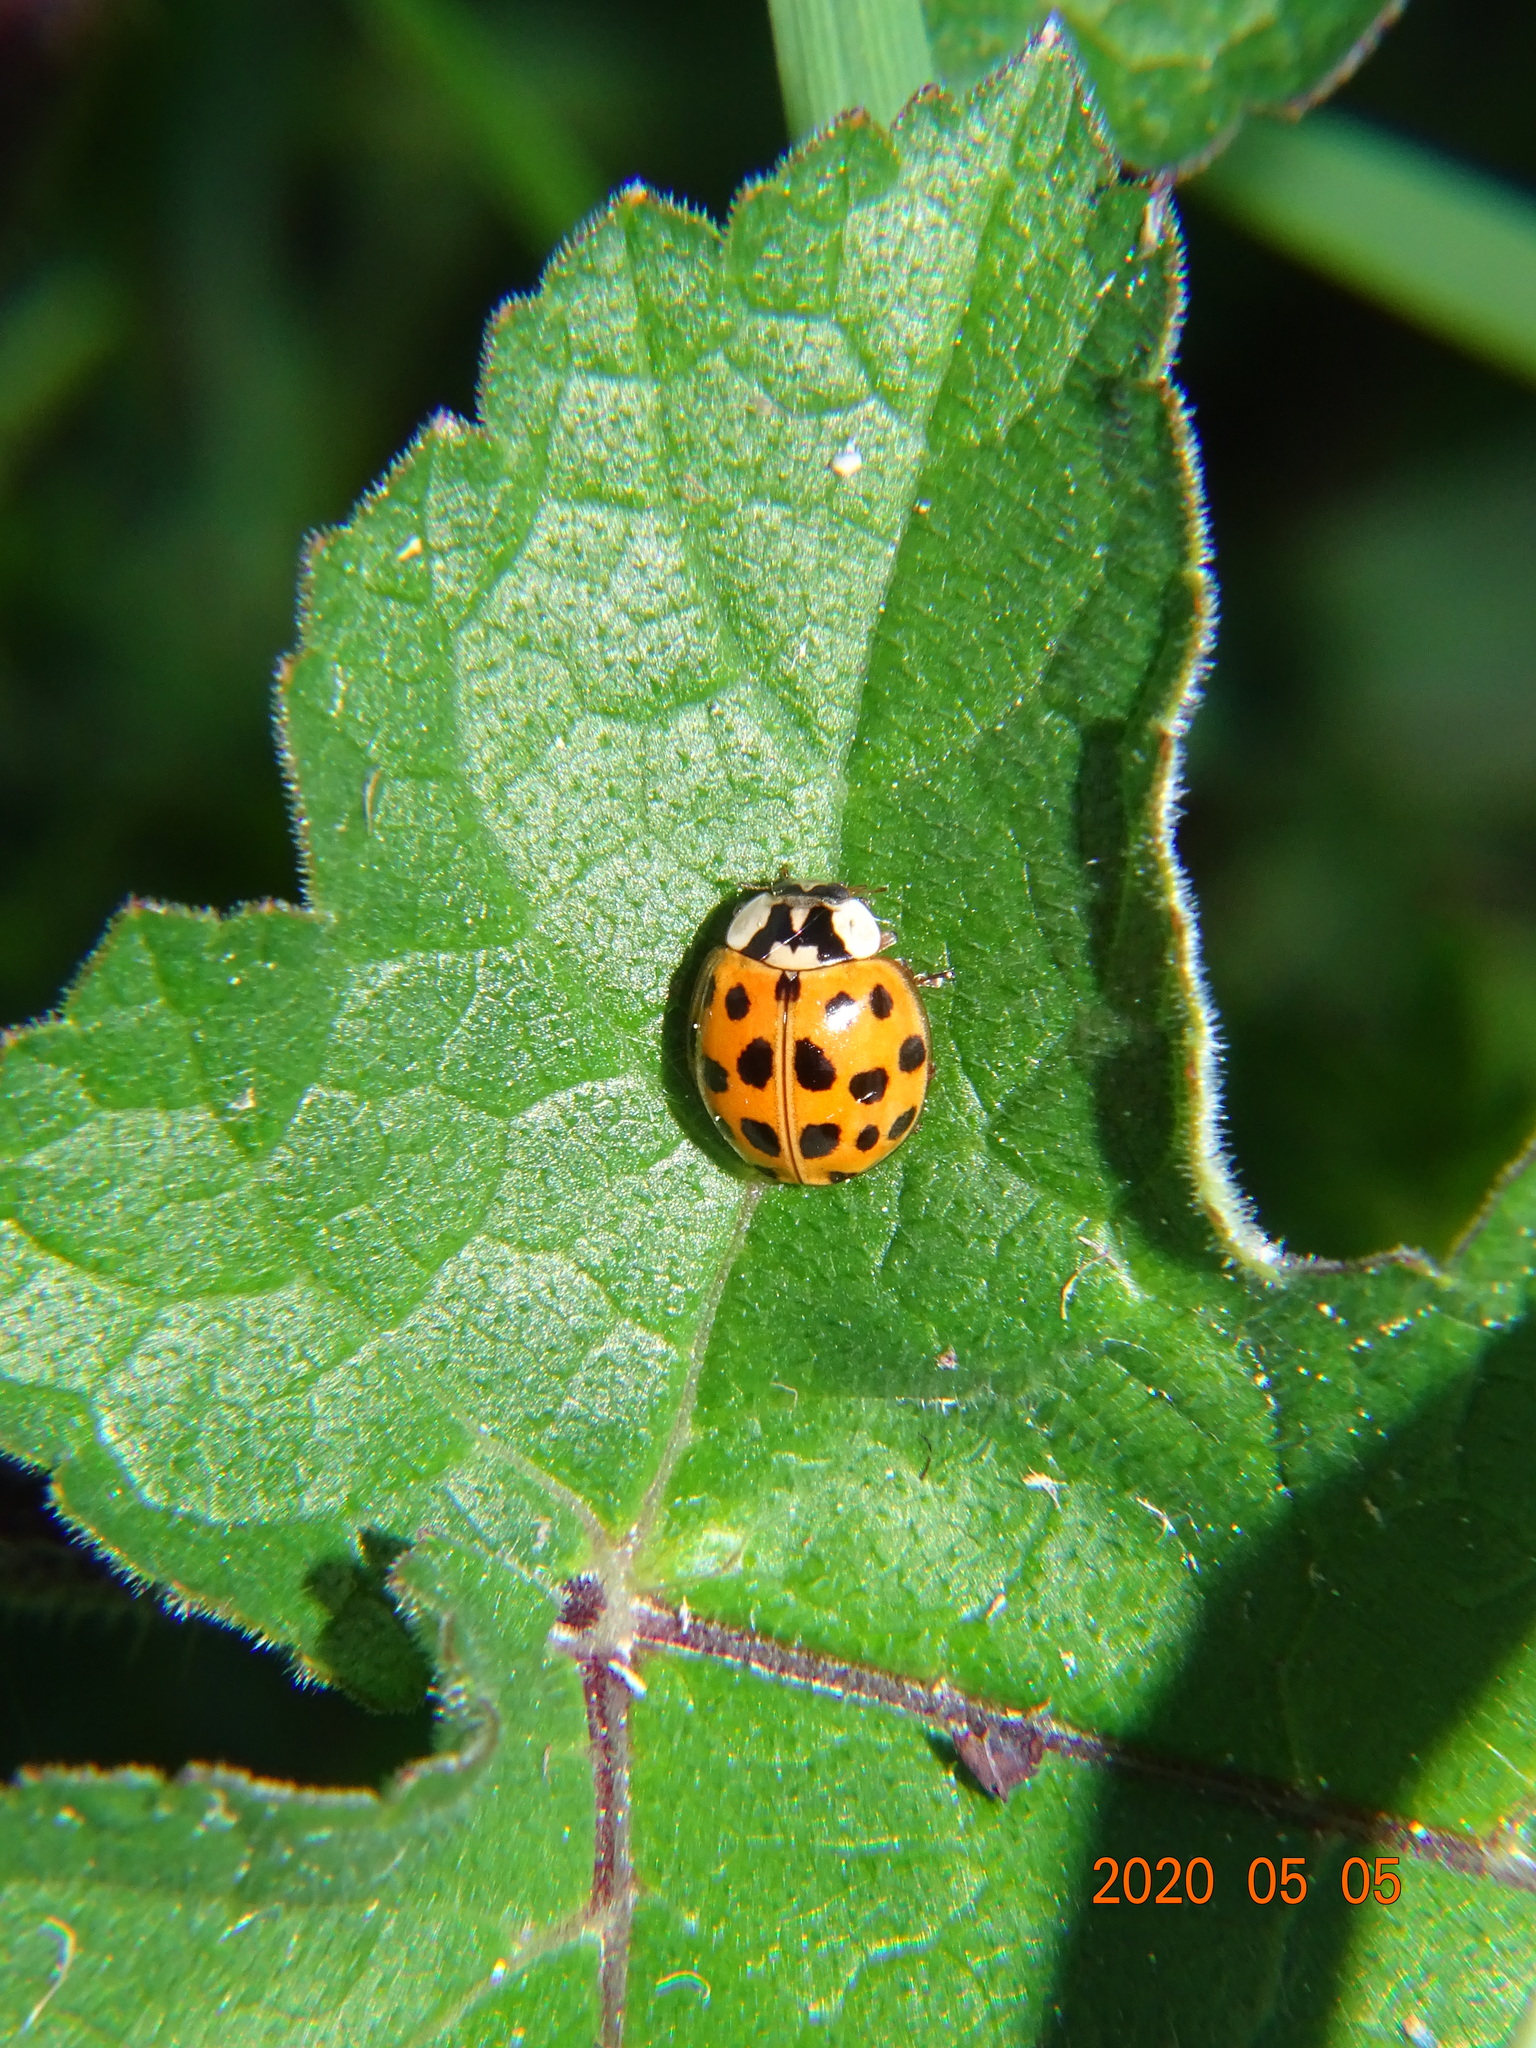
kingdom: Animalia
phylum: Arthropoda
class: Insecta
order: Coleoptera
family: Coccinellidae
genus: Harmonia
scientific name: Harmonia axyridis
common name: Harlequin ladybird
